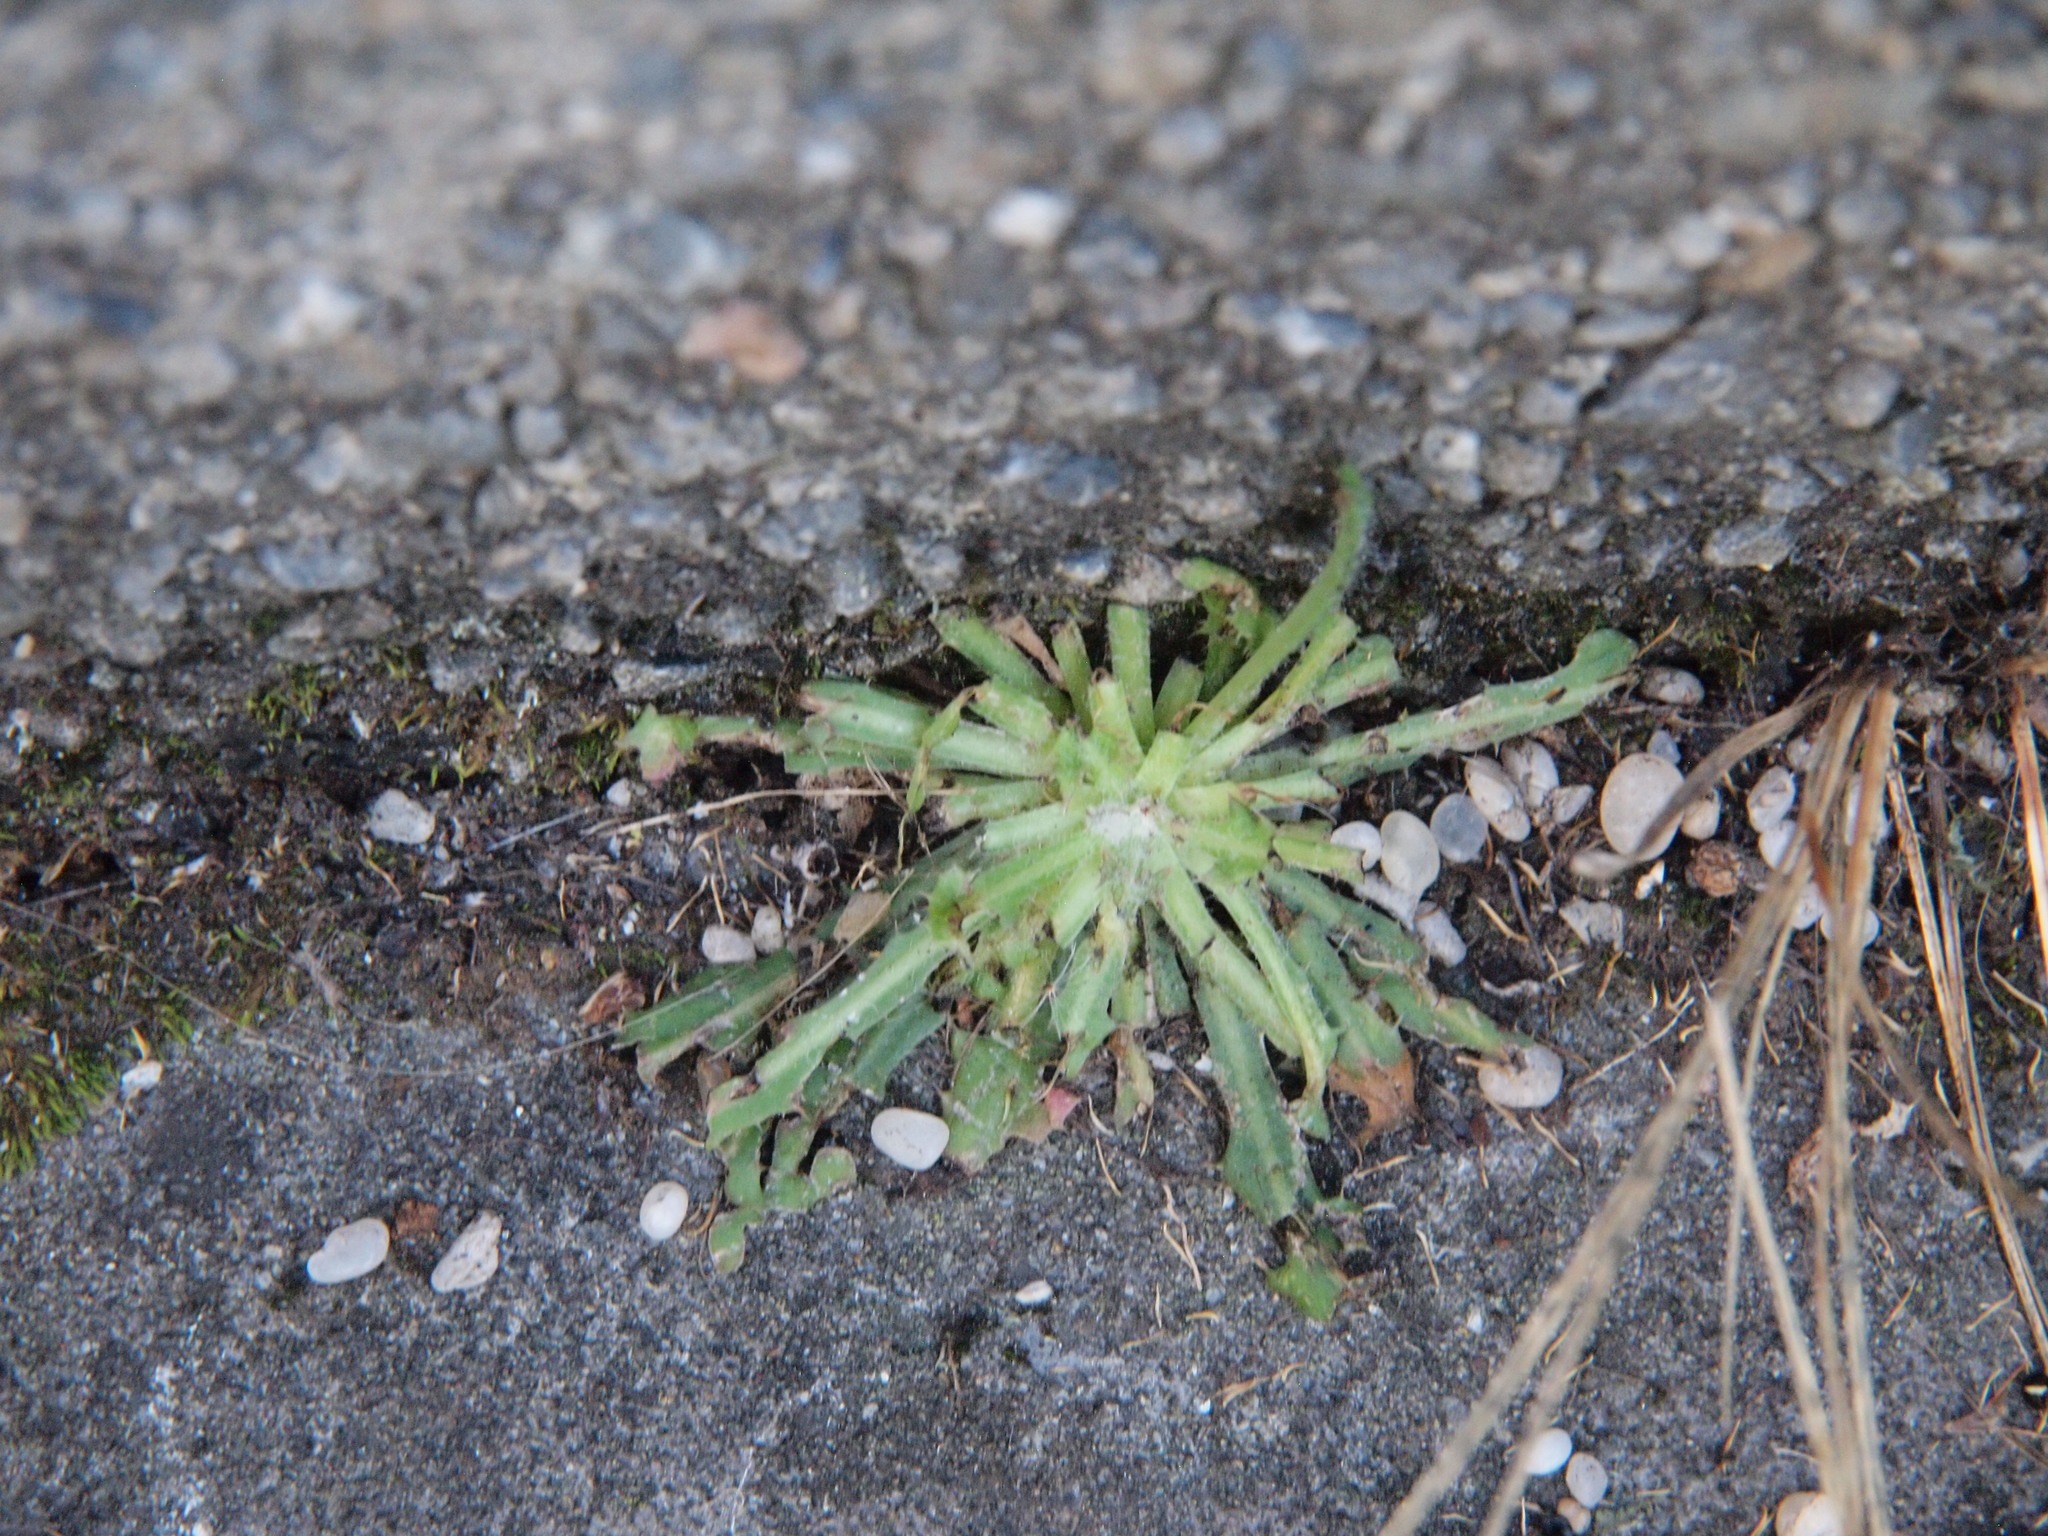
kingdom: Plantae
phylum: Tracheophyta
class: Magnoliopsida
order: Asterales
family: Asteraceae
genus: Hypochaeris
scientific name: Hypochaeris radicata
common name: Flatweed
